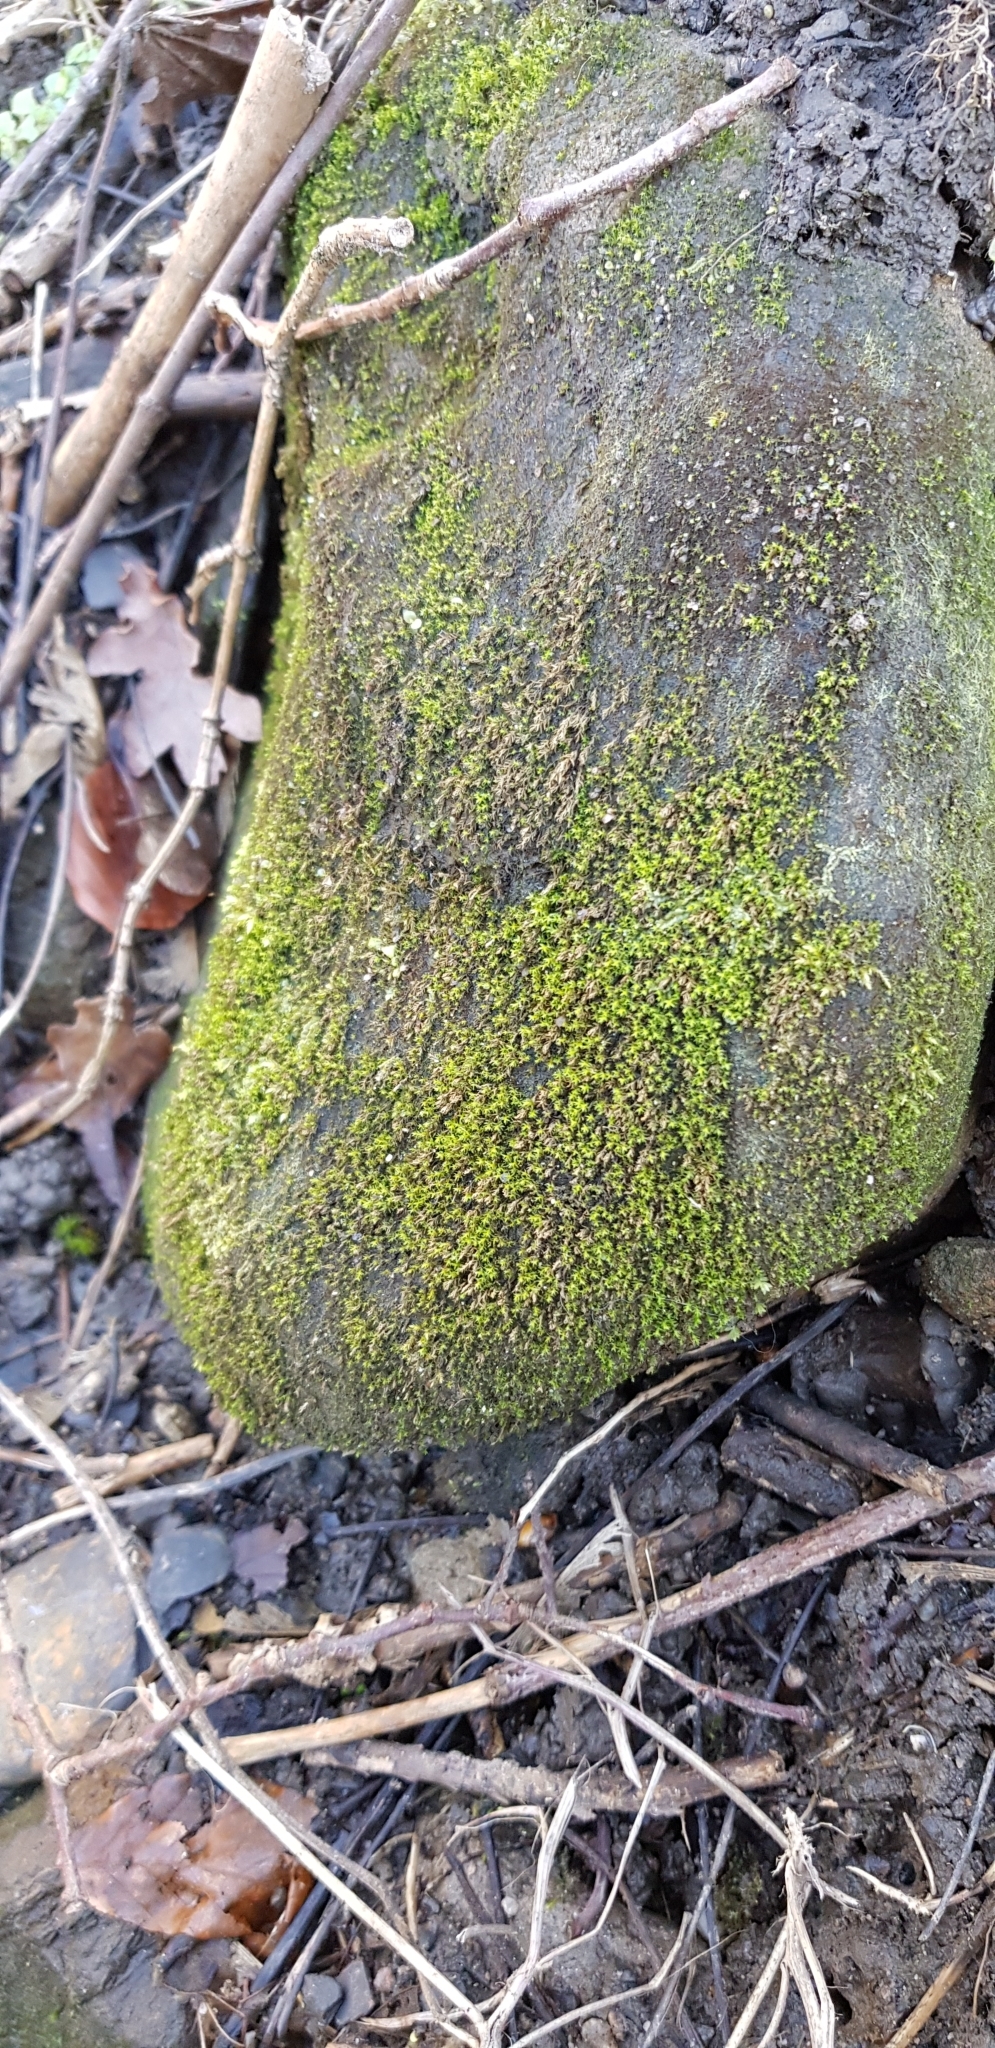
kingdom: Plantae
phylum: Bryophyta
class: Bryopsida
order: Dicranales
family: Aongstroemiaceae
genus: Dichodontium
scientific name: Dichodontium pellucidum
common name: Transparent fork moss
